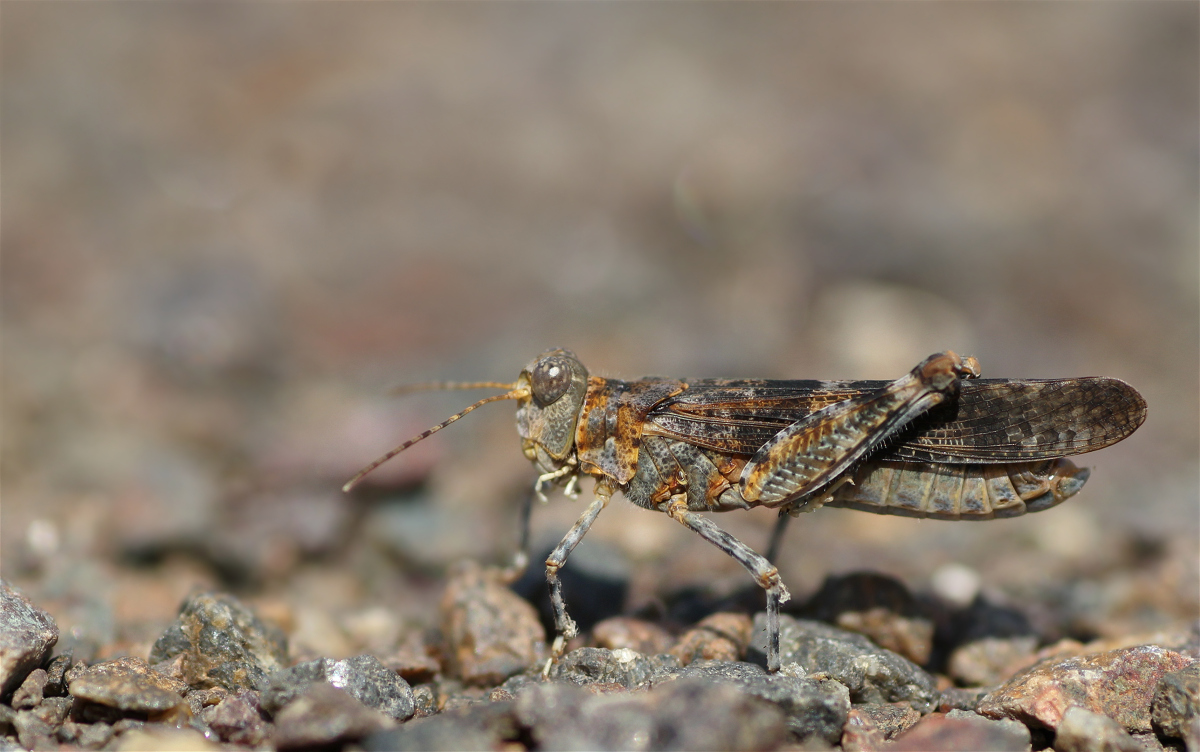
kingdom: Animalia
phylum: Arthropoda
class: Insecta
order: Orthoptera
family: Acrididae
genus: Sphingonotus
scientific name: Sphingonotus caerulans
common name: Blue-winged locust
